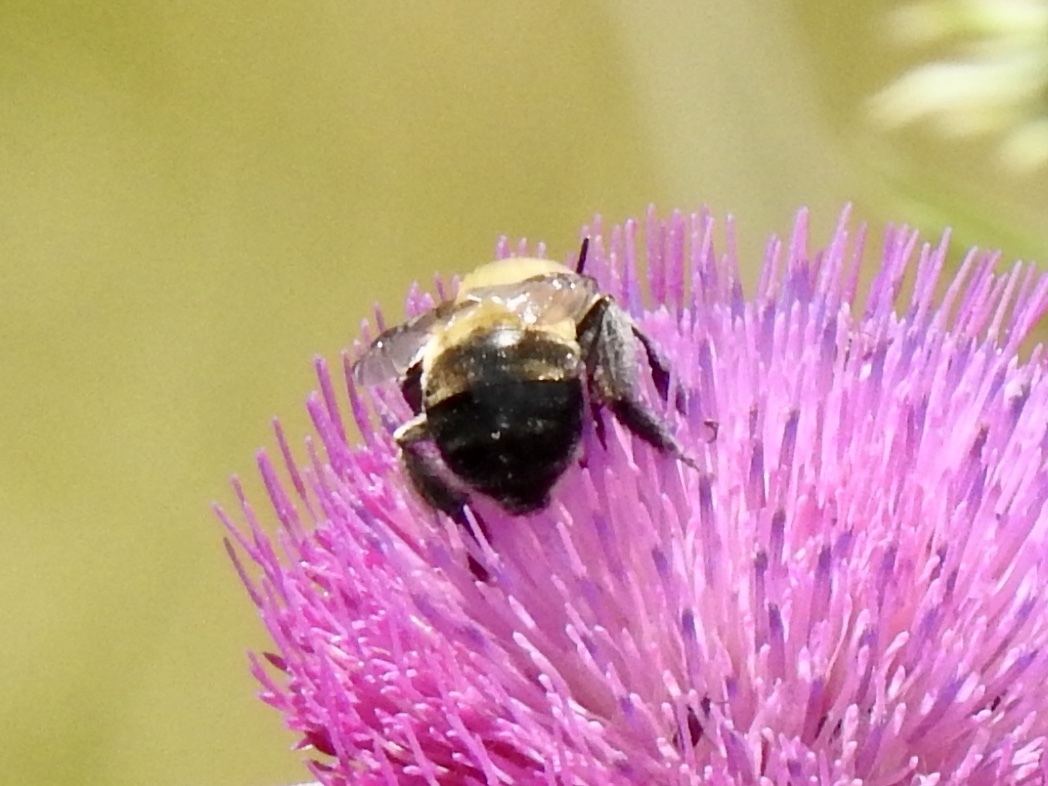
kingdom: Animalia
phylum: Arthropoda
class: Insecta
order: Hymenoptera
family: Apidae
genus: Anthophora
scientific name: Anthophora montana
